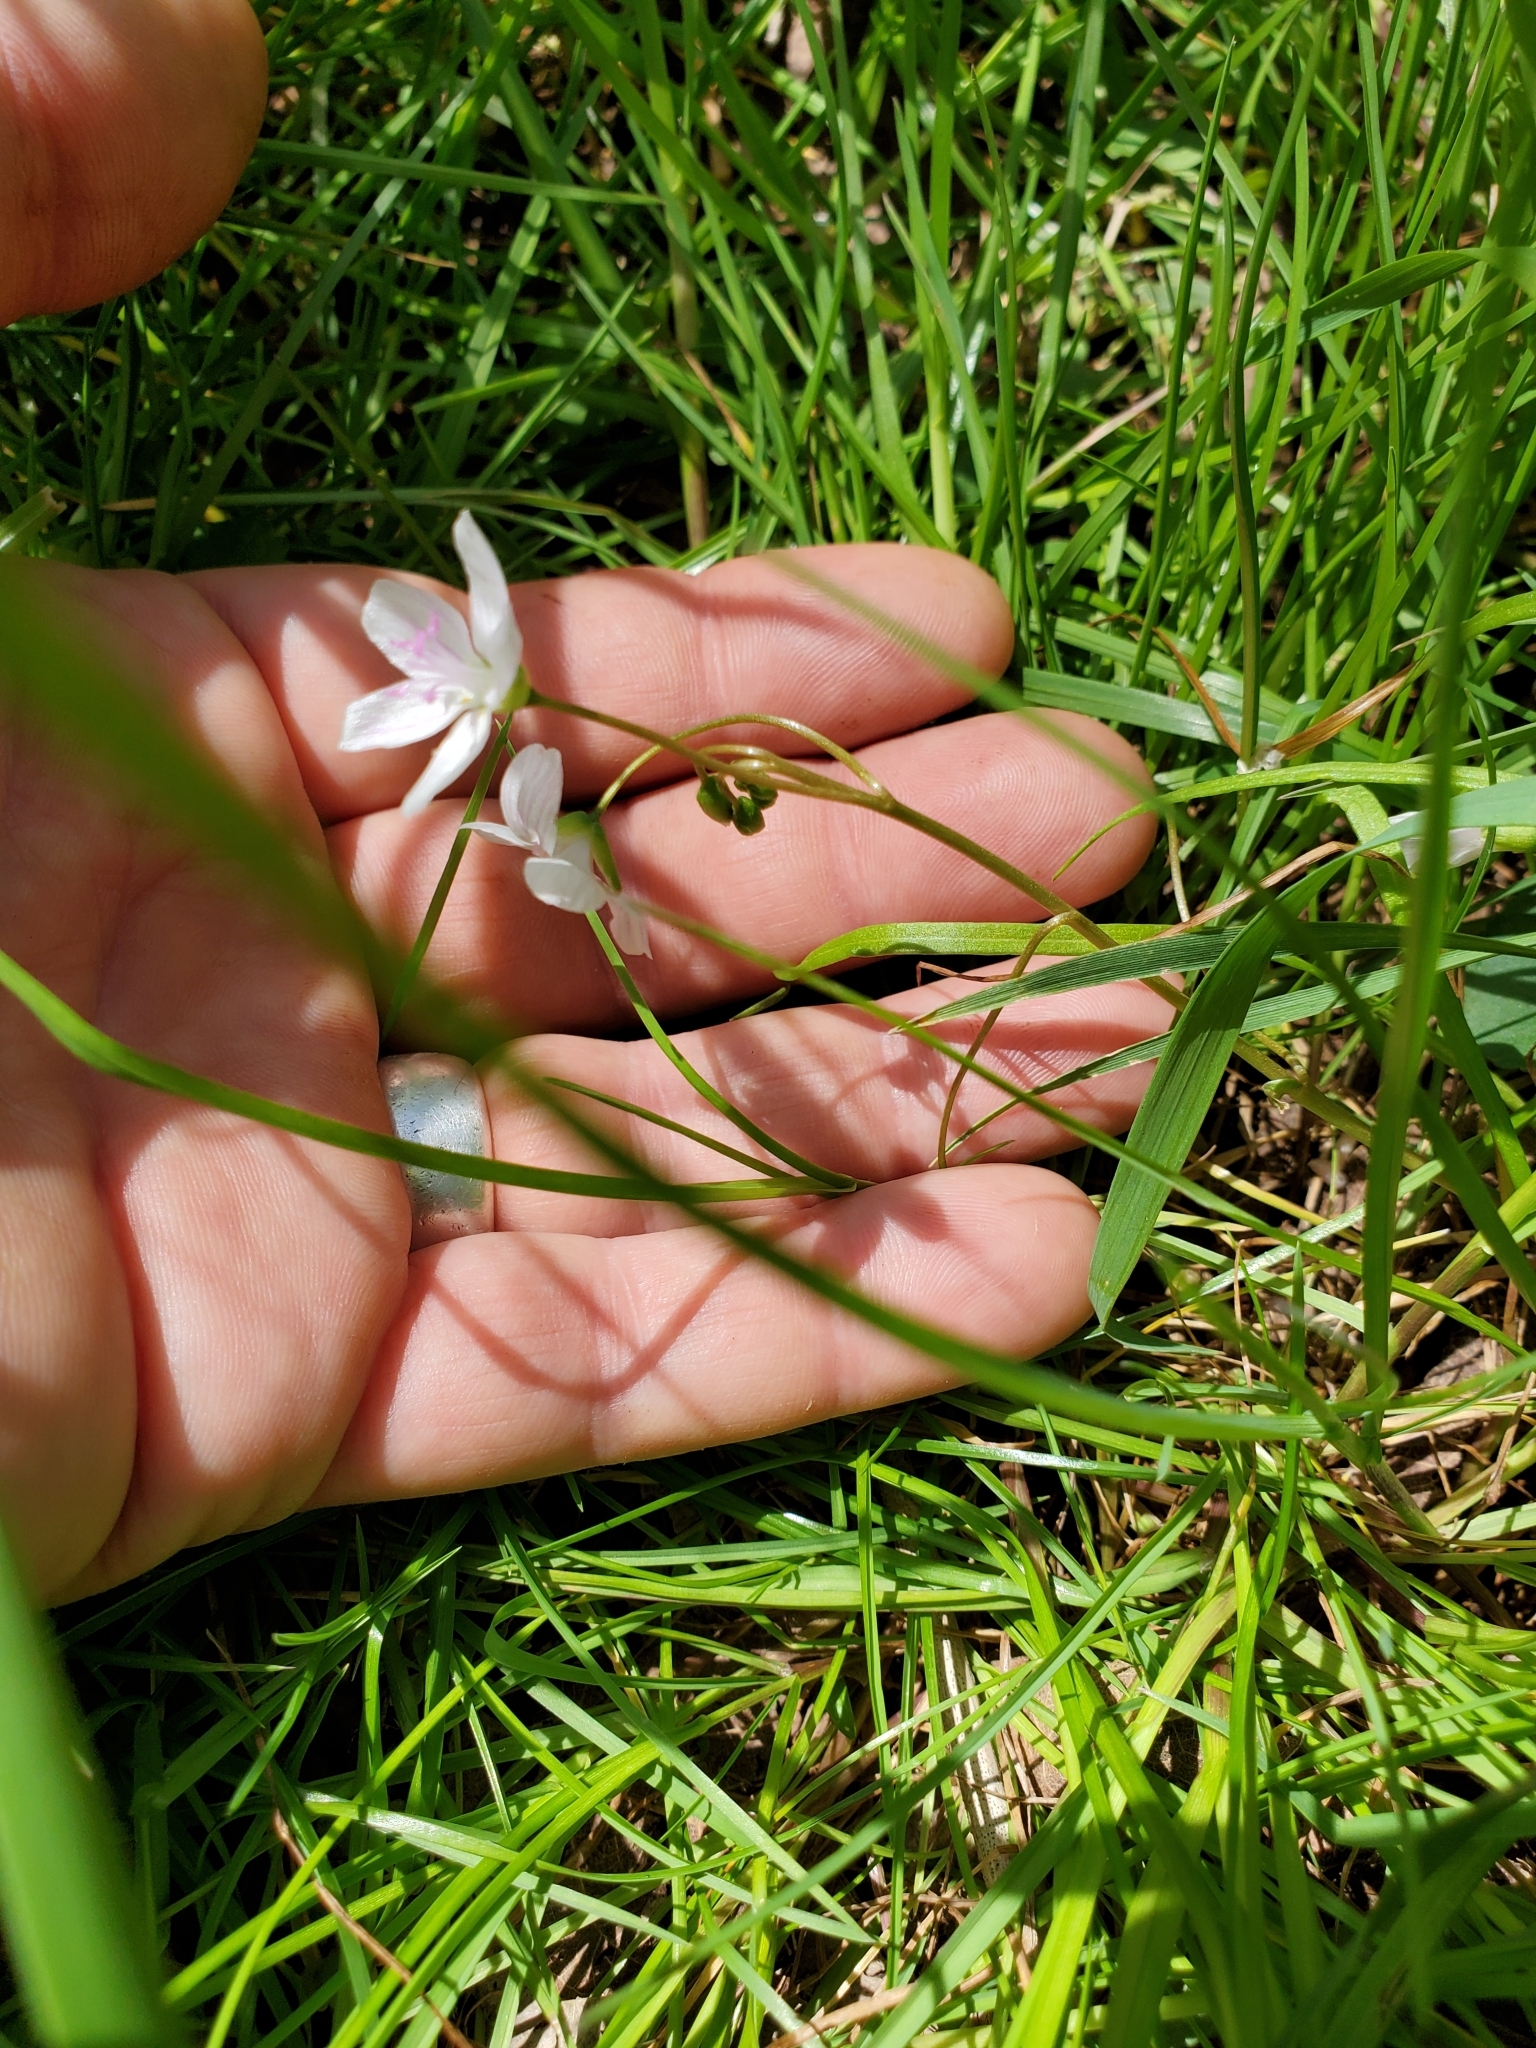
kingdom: Plantae
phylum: Tracheophyta
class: Magnoliopsida
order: Caryophyllales
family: Montiaceae
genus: Claytonia
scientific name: Claytonia virginica
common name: Virginia springbeauty
